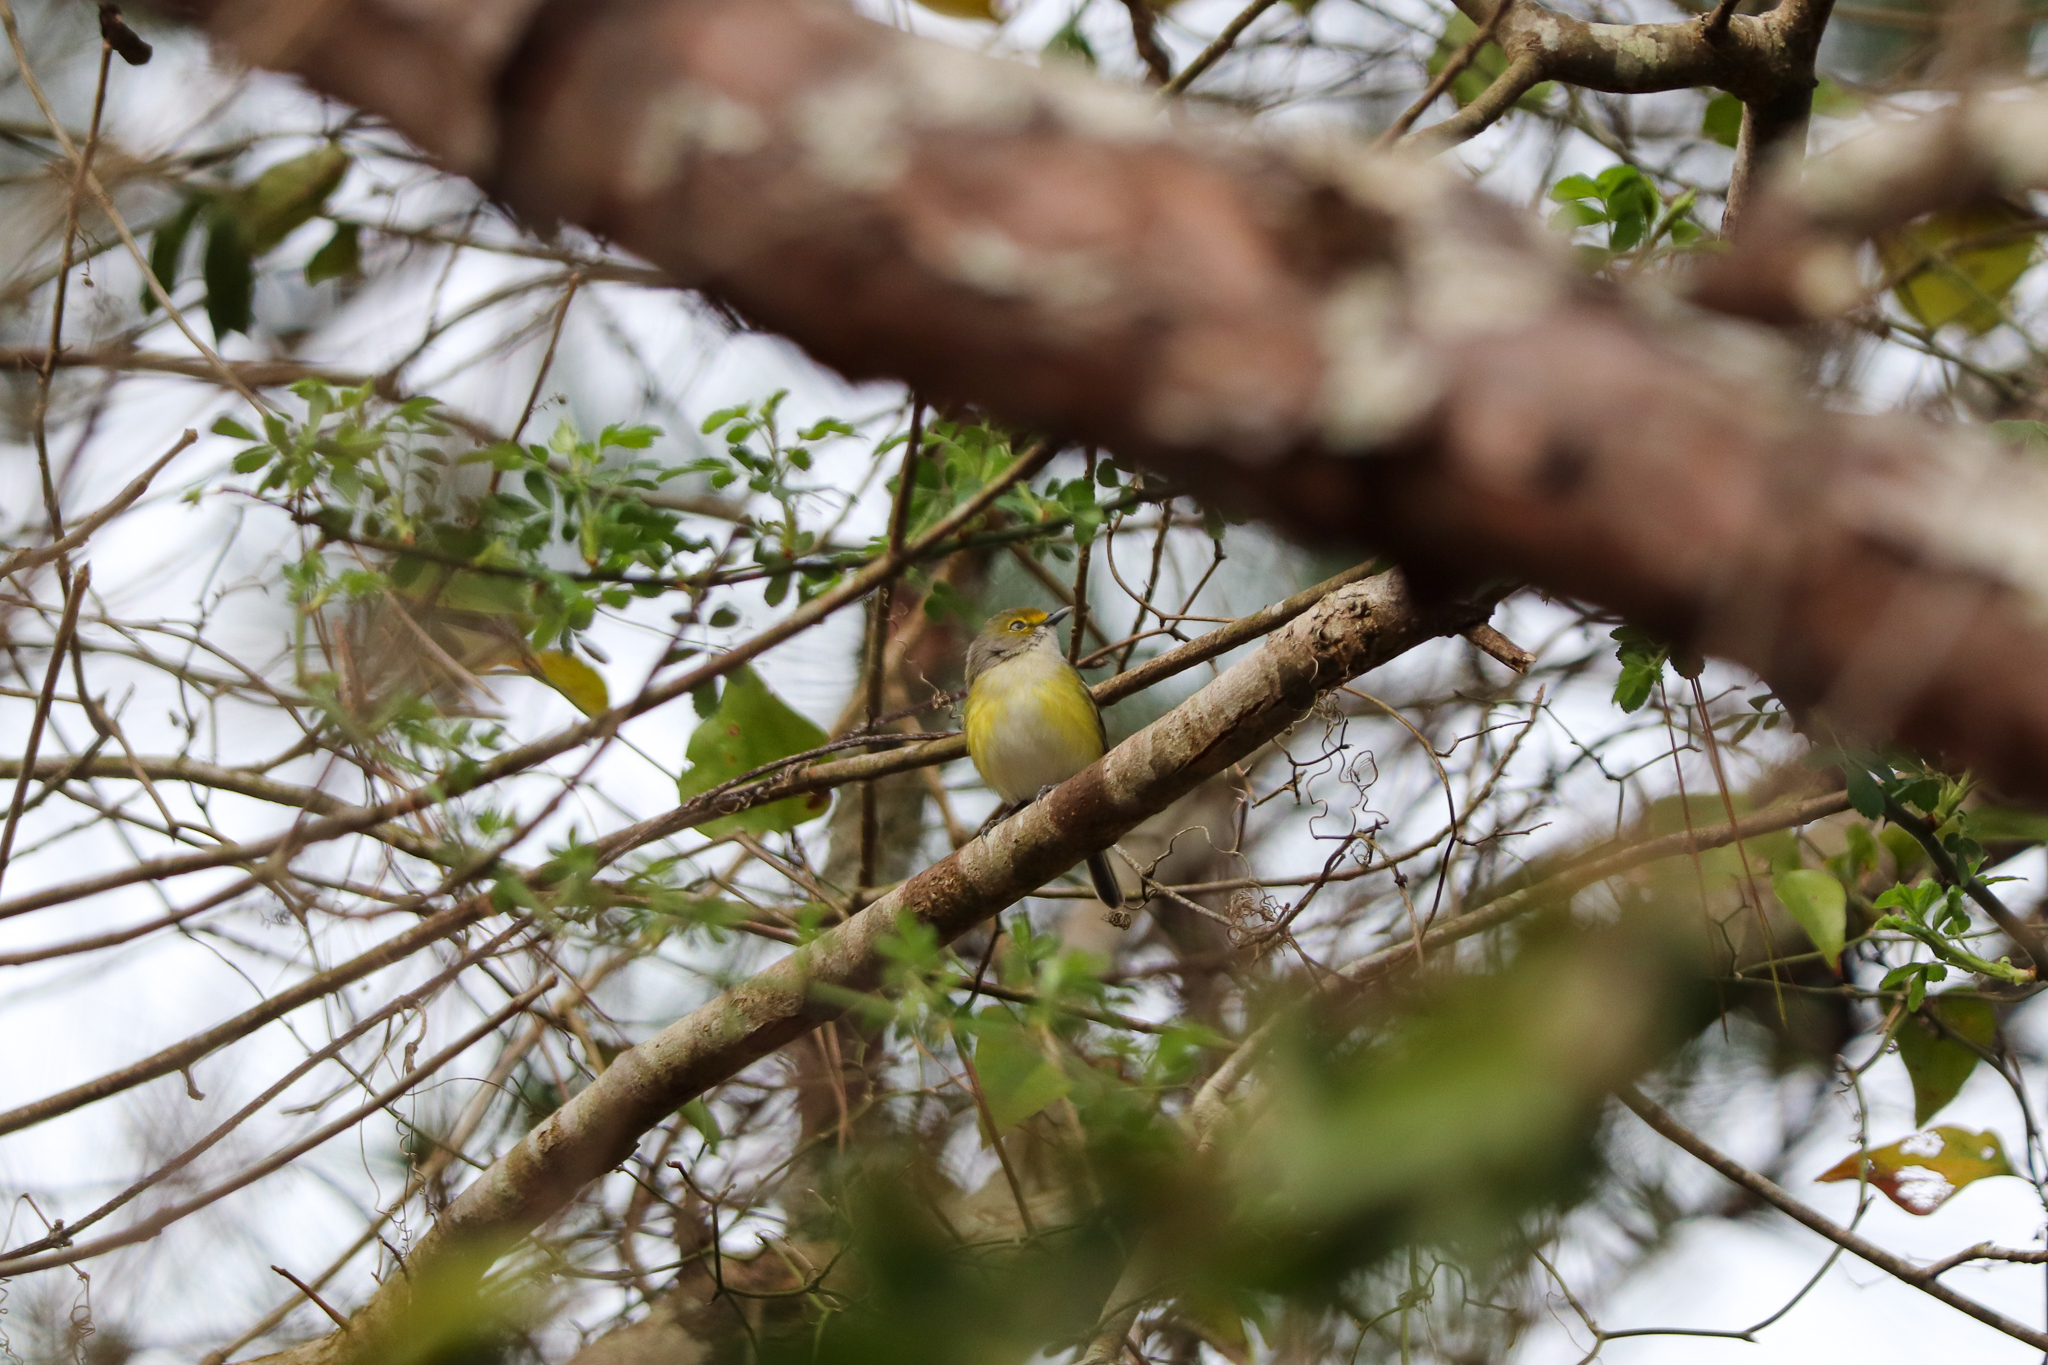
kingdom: Animalia
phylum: Chordata
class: Aves
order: Passeriformes
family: Vireonidae
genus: Vireo
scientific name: Vireo griseus
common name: White-eyed vireo
